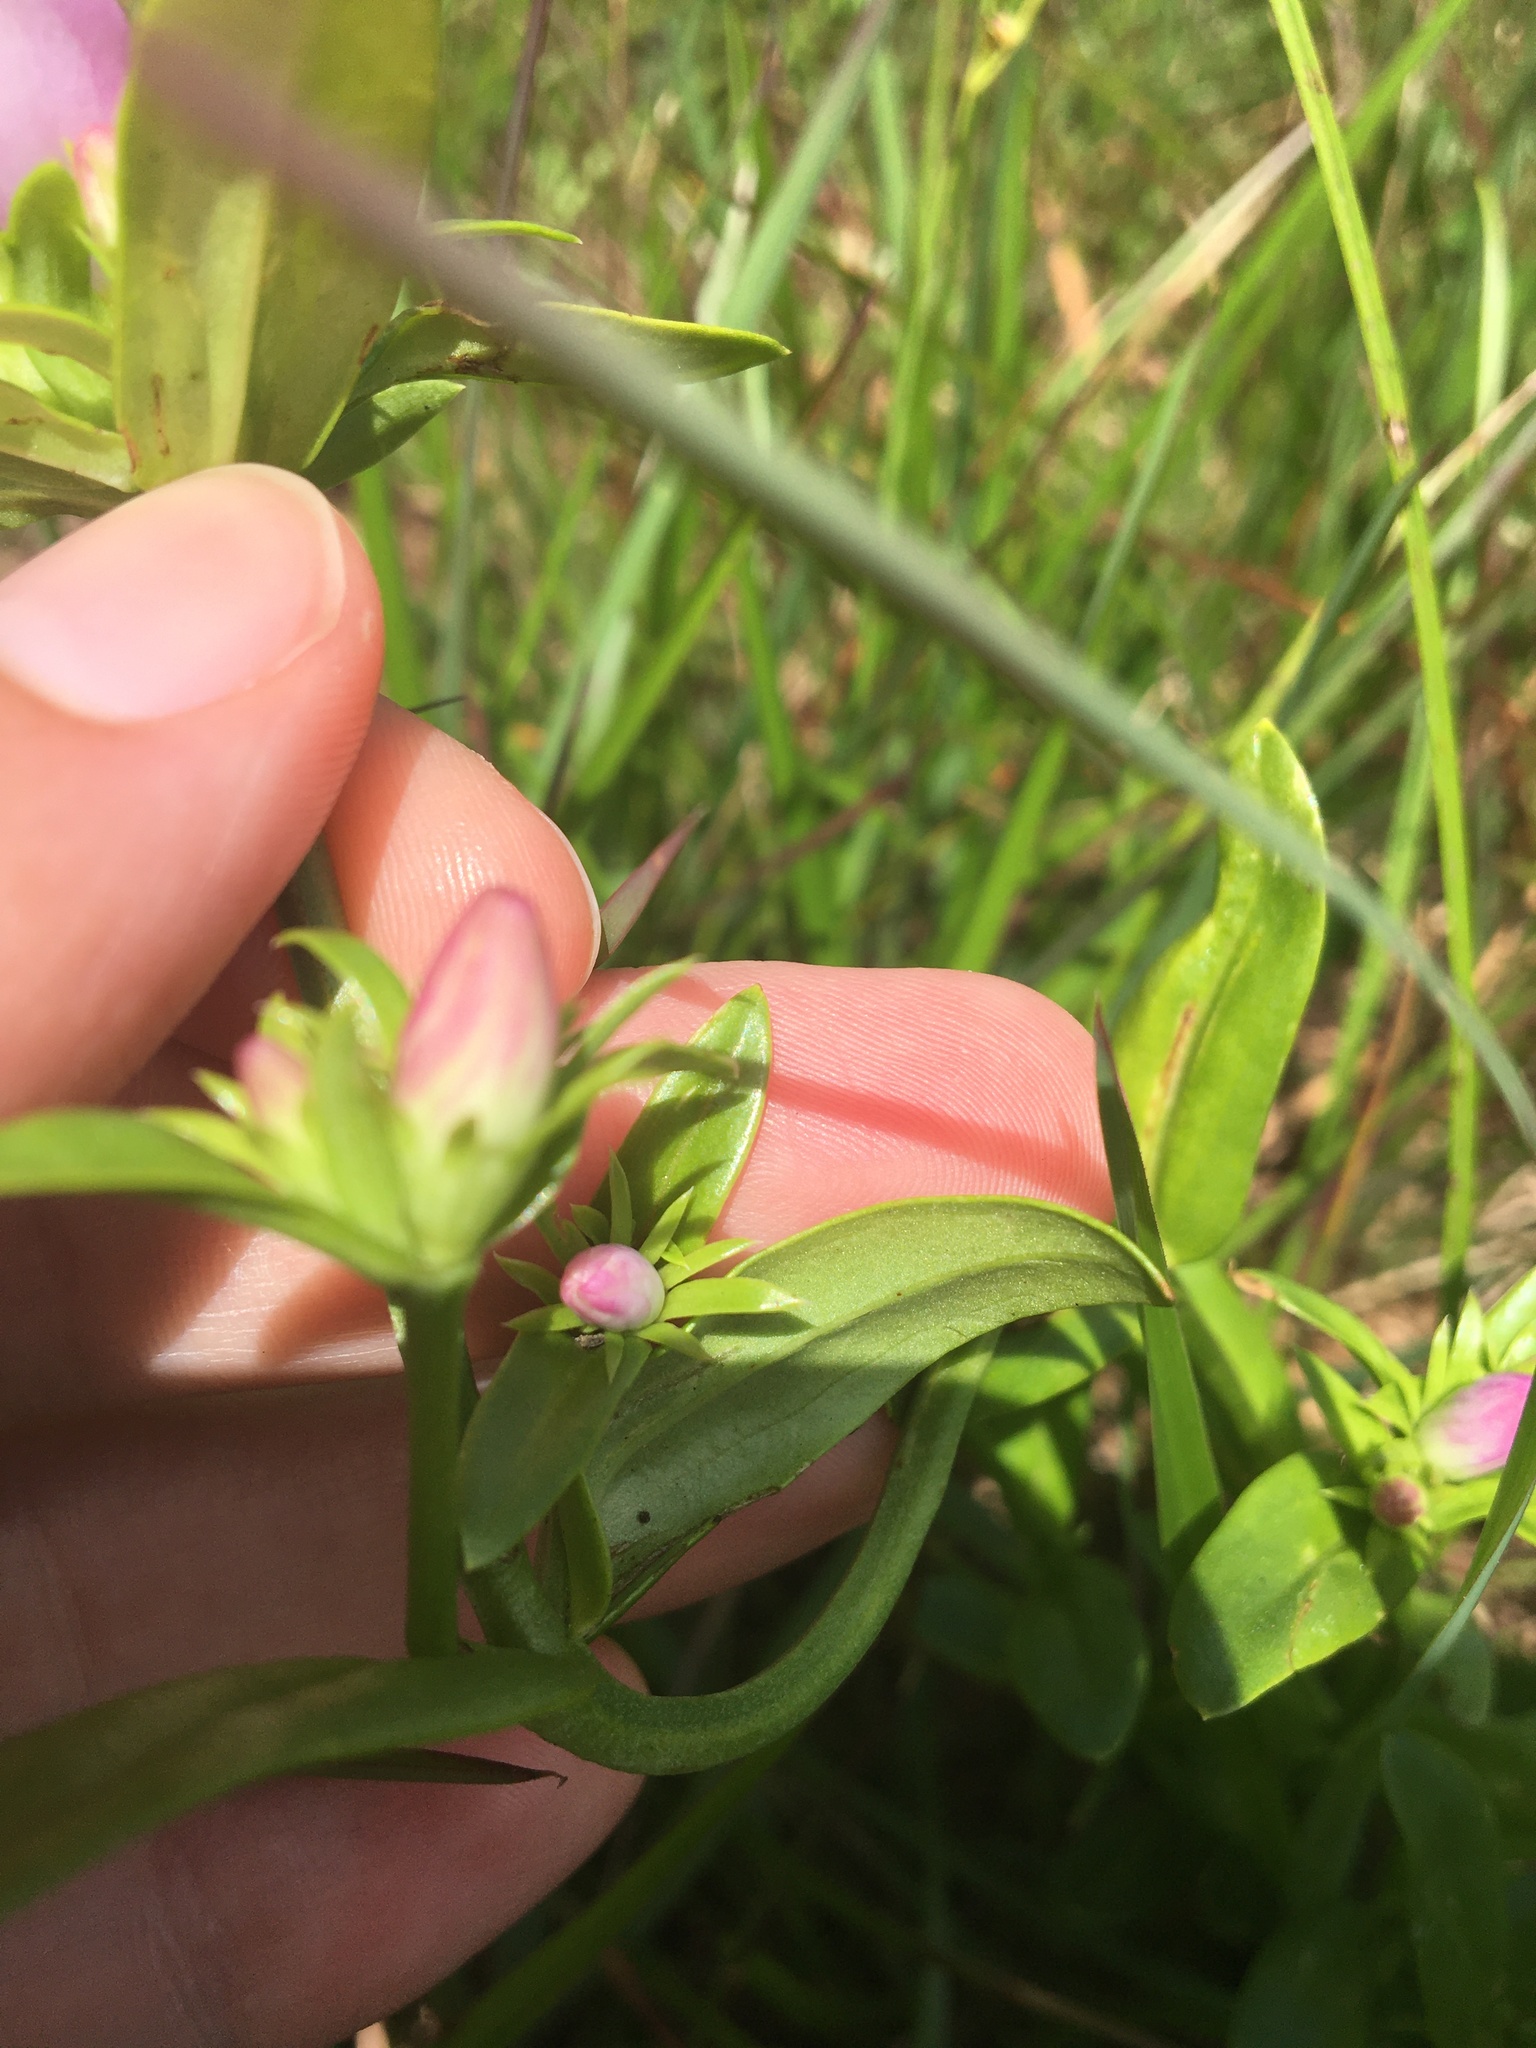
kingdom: Plantae
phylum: Tracheophyta
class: Magnoliopsida
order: Gentianales
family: Gentianaceae
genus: Sabatia
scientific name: Sabatia capitata
